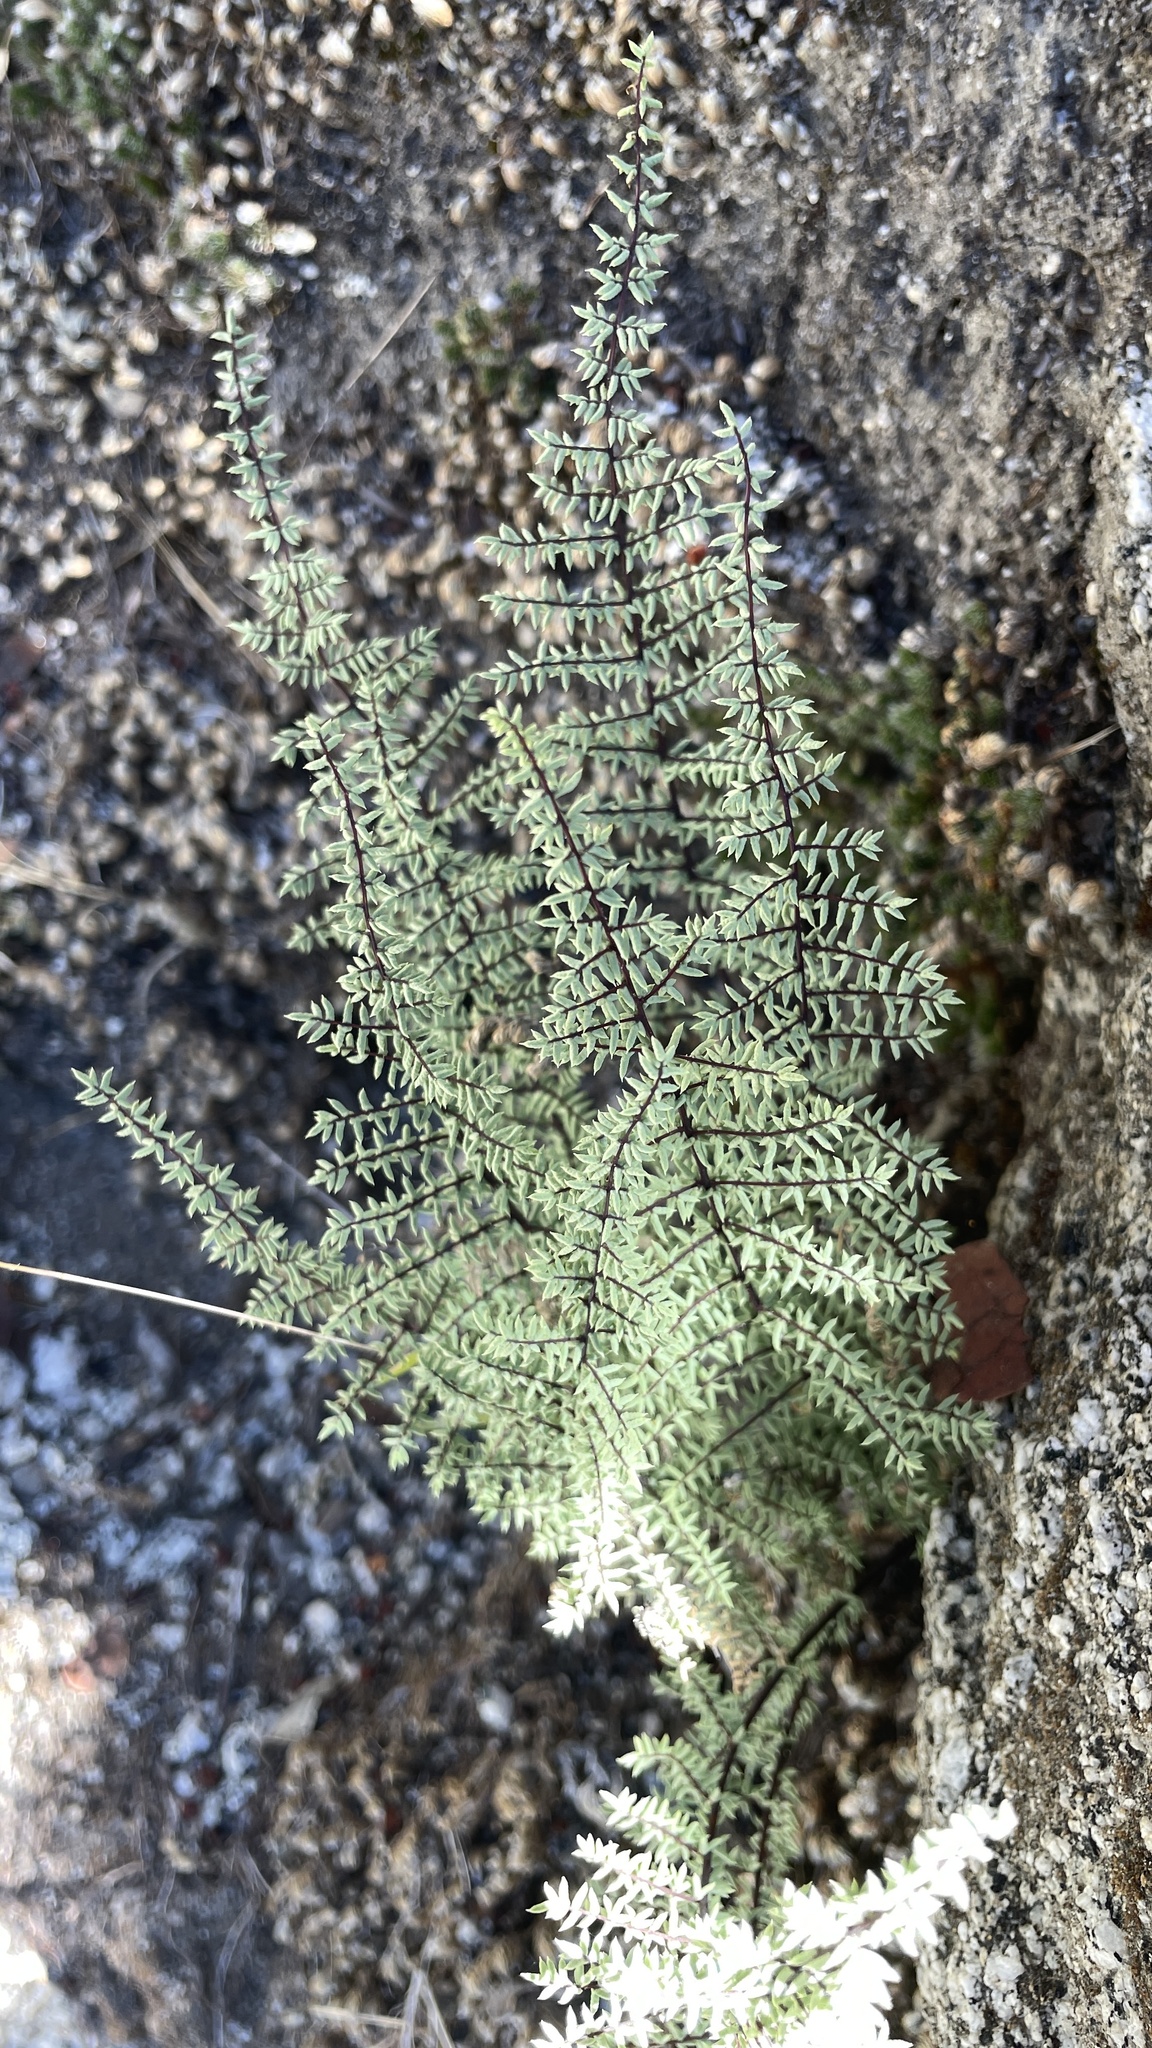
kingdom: Plantae
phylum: Tracheophyta
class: Polypodiopsida
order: Polypodiales
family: Pteridaceae
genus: Pellaea
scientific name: Pellaea mucronata
